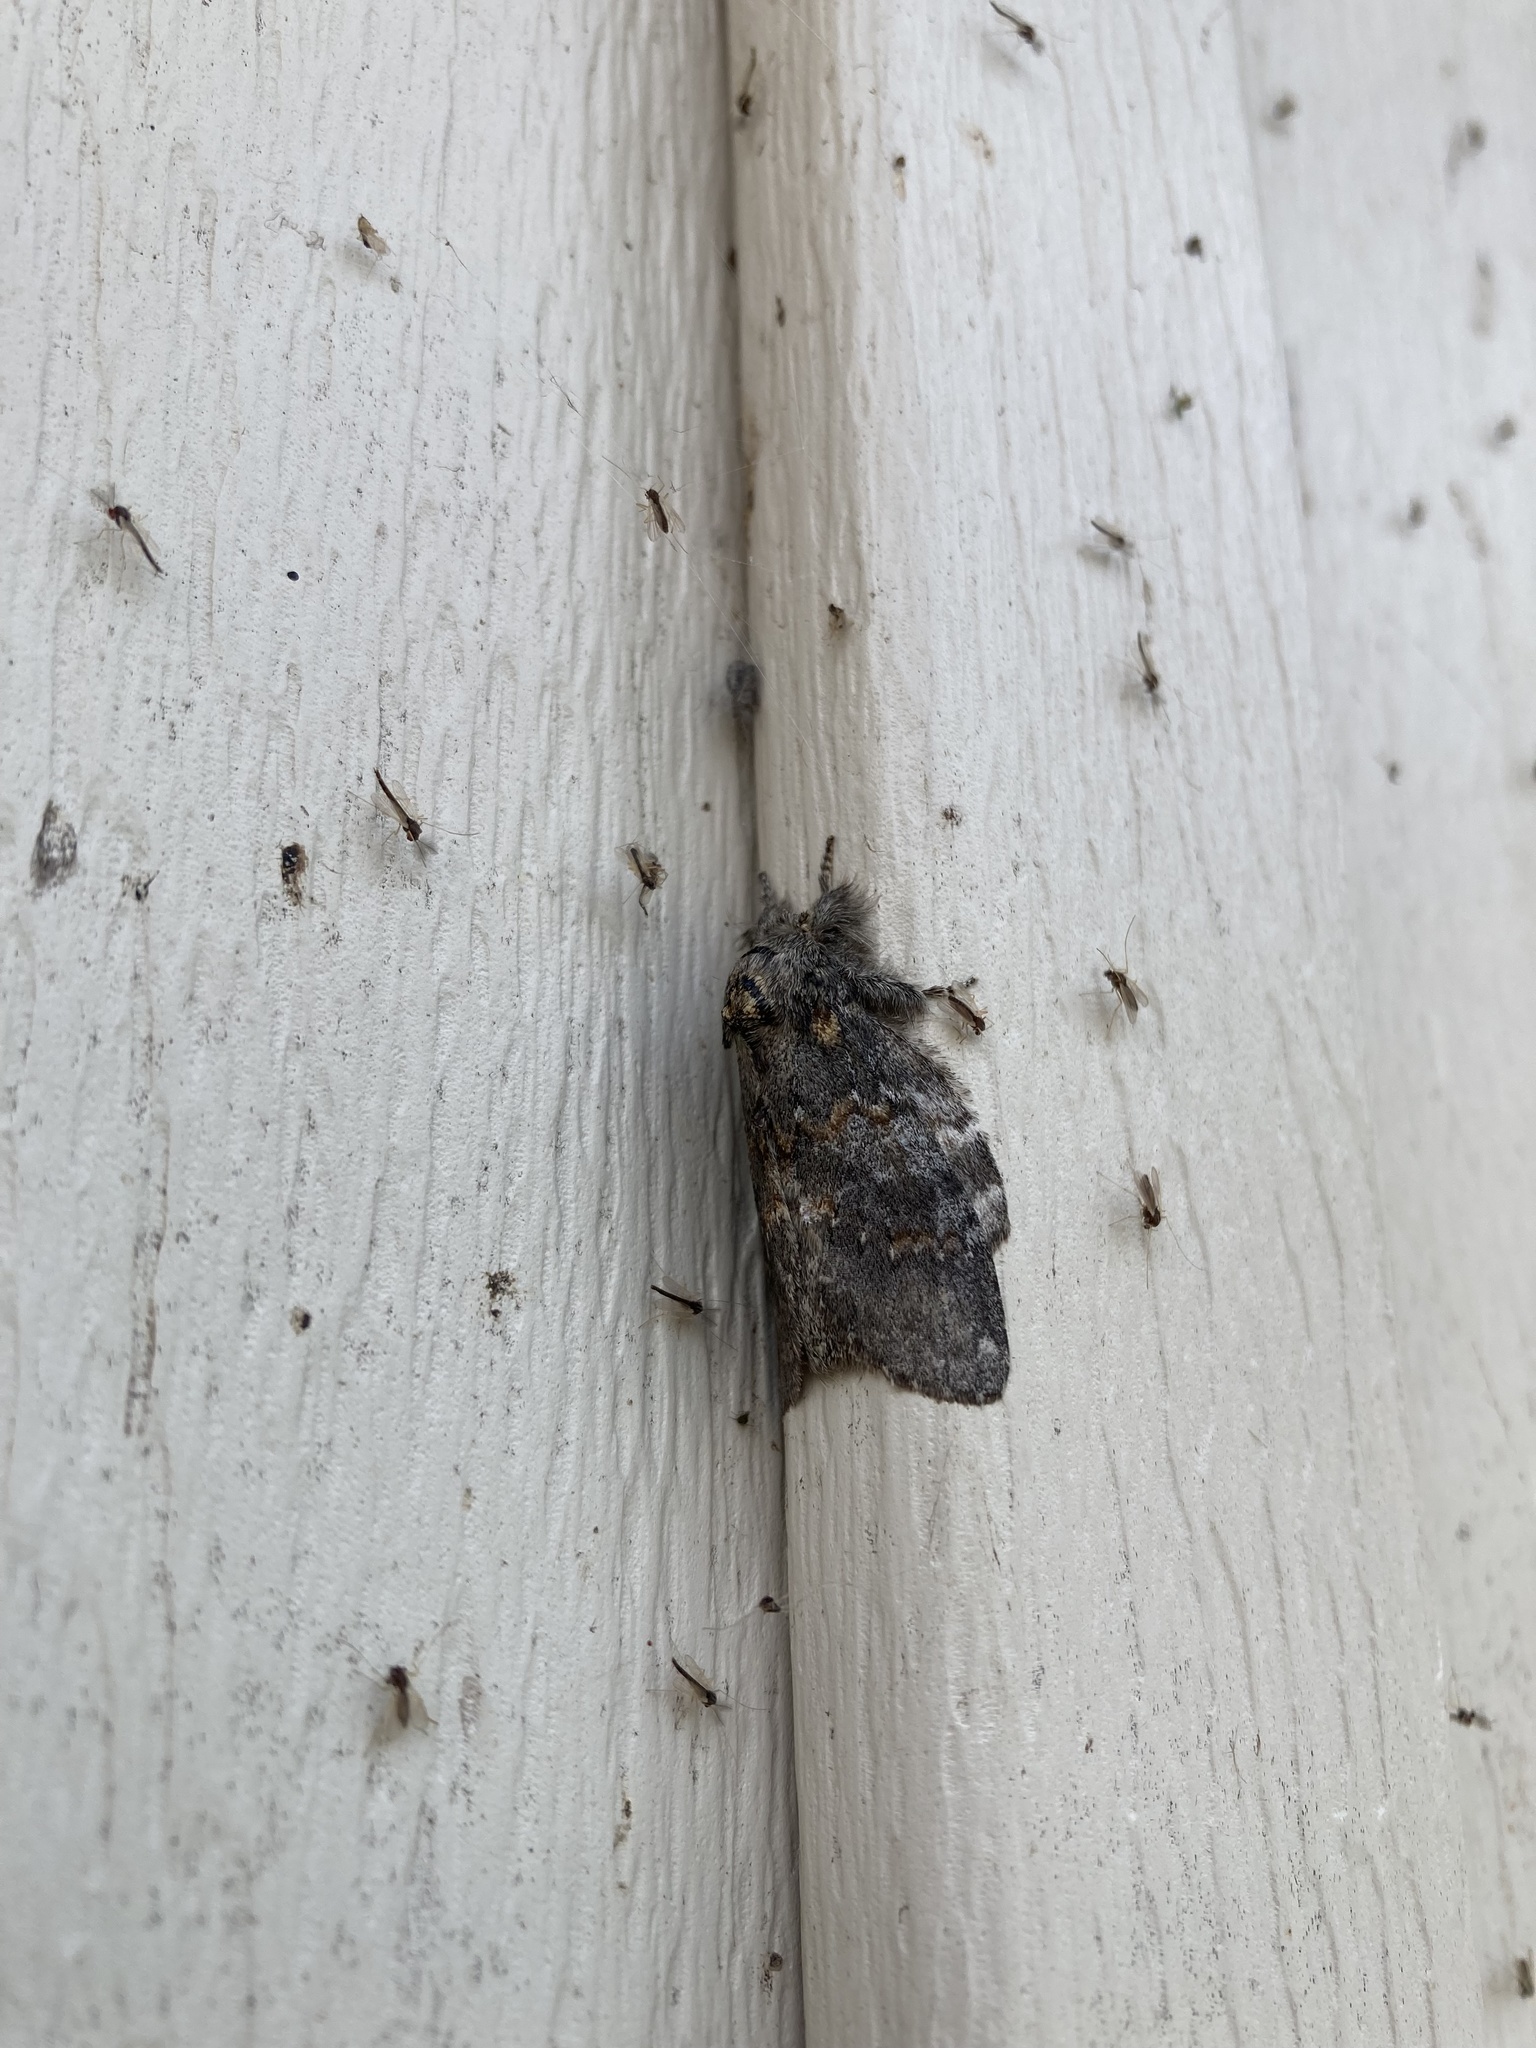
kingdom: Animalia
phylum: Arthropoda
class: Insecta
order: Lepidoptera
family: Notodontidae
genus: Peridea
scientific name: Peridea angulosa
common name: Angulose prominent
